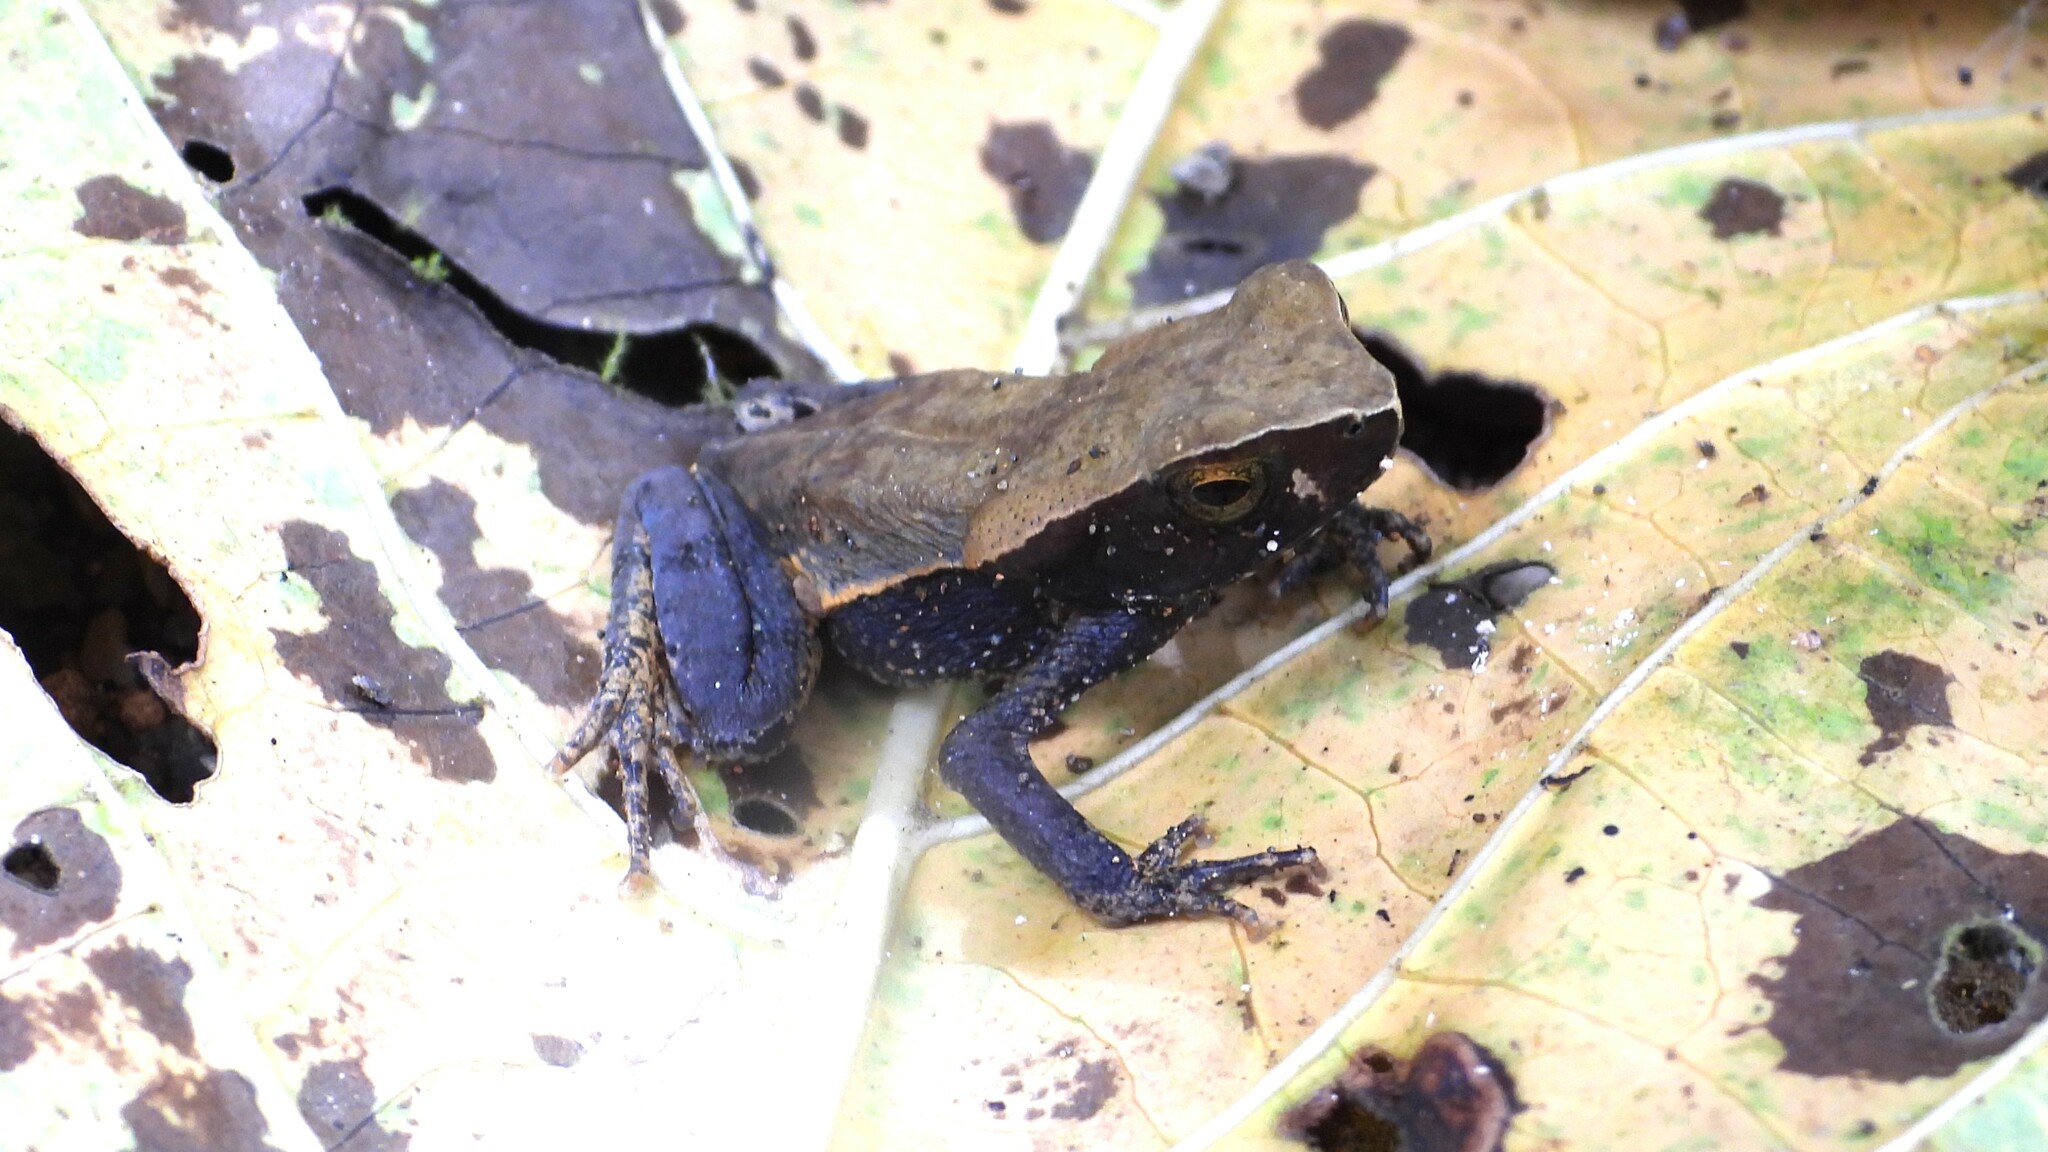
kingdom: Animalia
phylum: Chordata
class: Amphibia
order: Anura
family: Bufonidae
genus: Rhaebo
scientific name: Rhaebo haematiticus
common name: Truando toad
